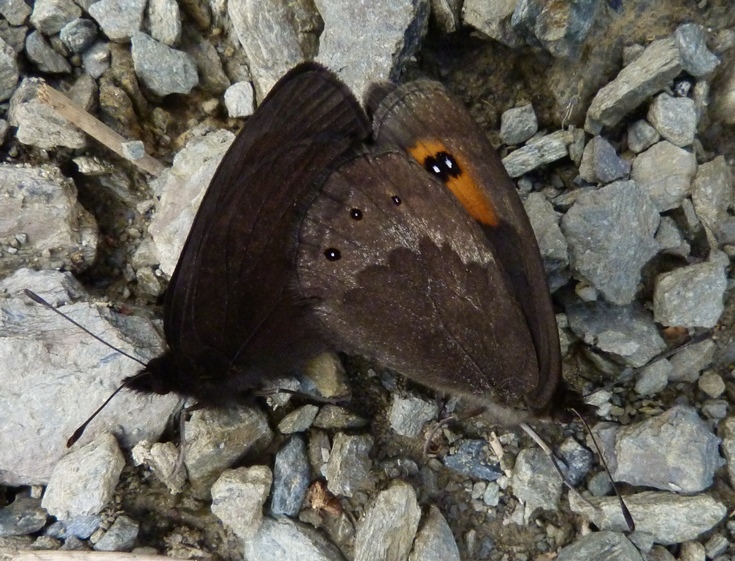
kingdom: Animalia
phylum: Arthropoda
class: Insecta
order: Lepidoptera
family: Nymphalidae
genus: Erebia
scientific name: Erebia meolans
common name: Piedmont ringlet
